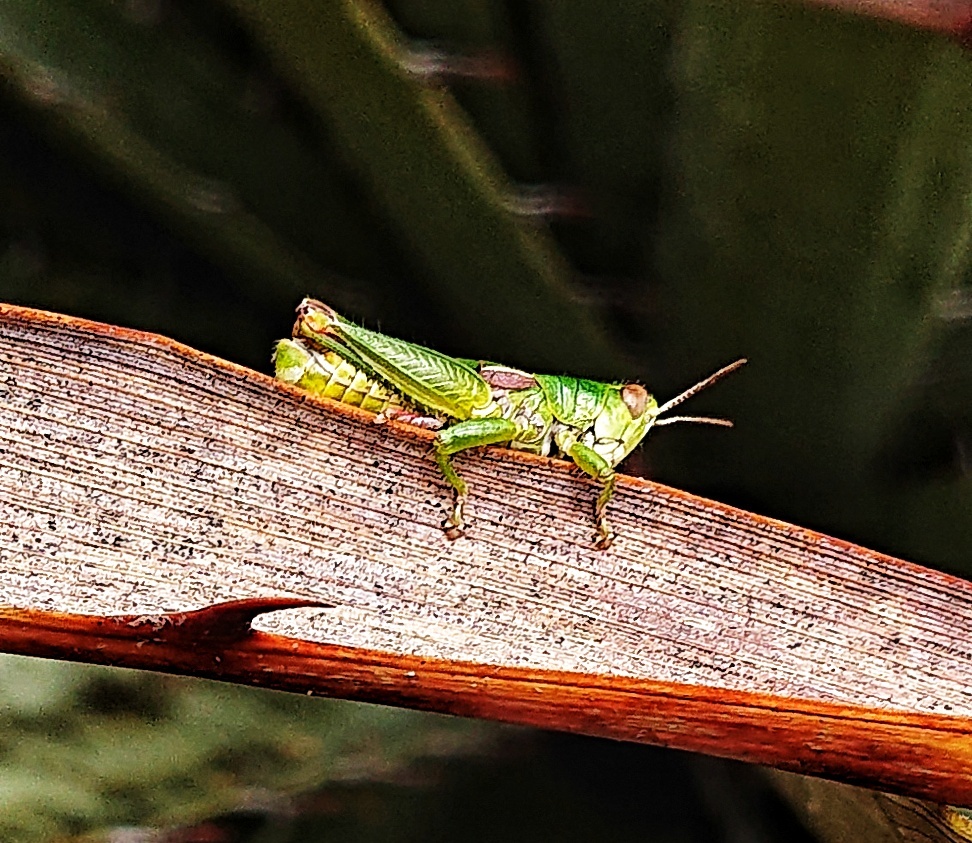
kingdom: Animalia
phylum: Arthropoda
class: Insecta
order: Orthoptera
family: Acrididae
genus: Jivarus
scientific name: Jivarus antisanae
